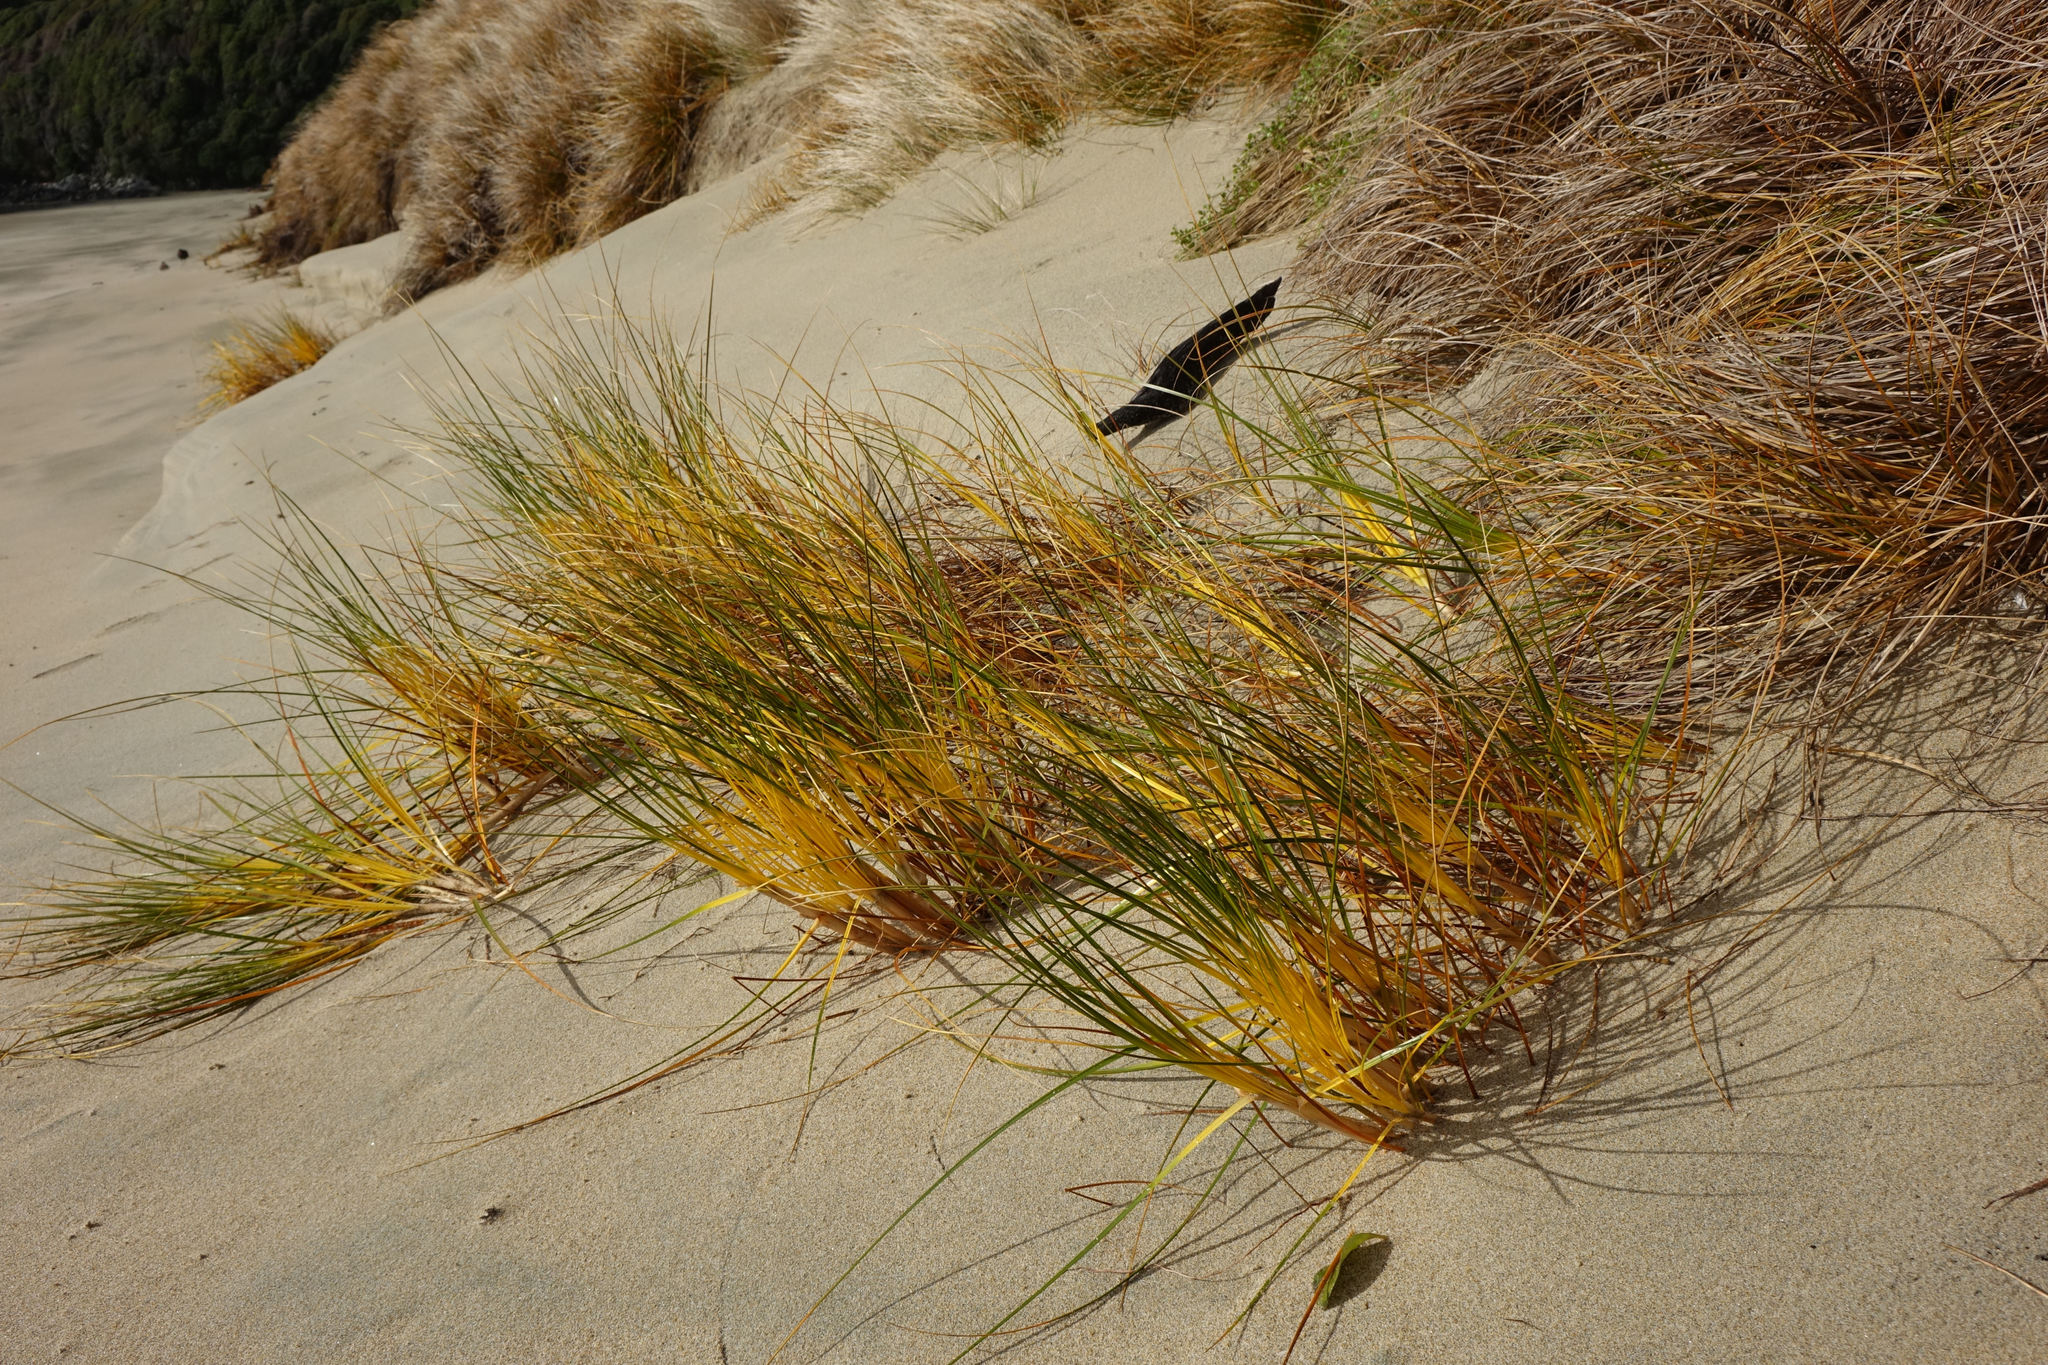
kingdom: Plantae
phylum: Tracheophyta
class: Liliopsida
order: Poales
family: Cyperaceae
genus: Ficinia
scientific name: Ficinia spiralis
